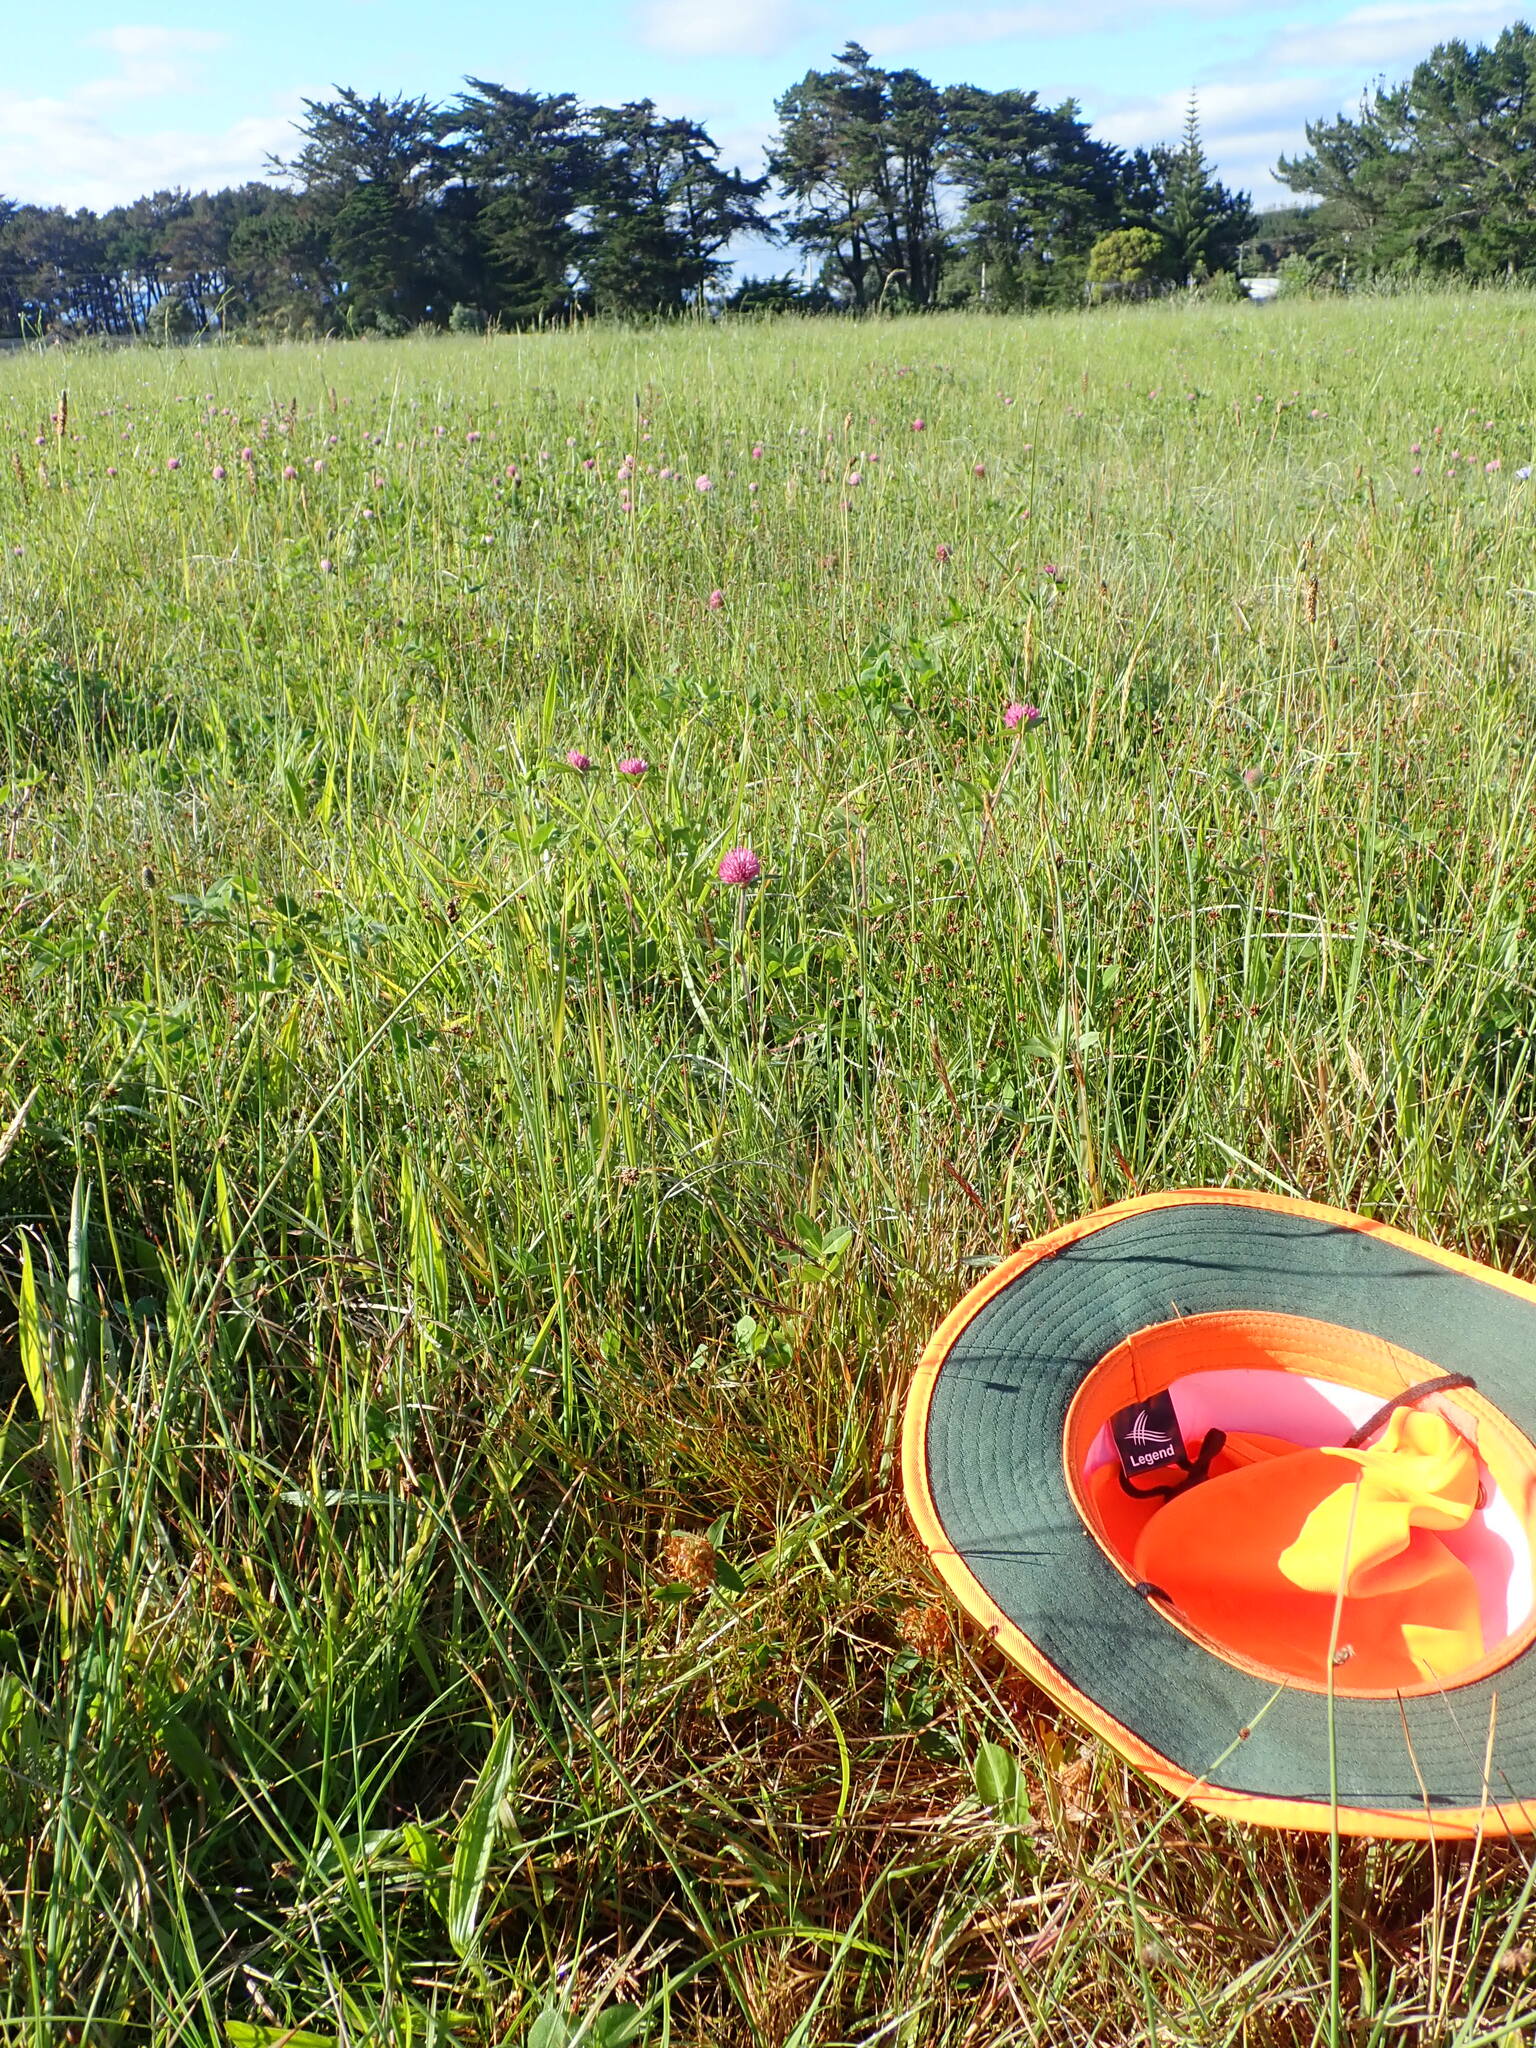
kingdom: Plantae
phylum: Tracheophyta
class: Liliopsida
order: Poales
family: Juncaceae
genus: Juncus
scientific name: Juncus bufonius
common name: Toad rush
